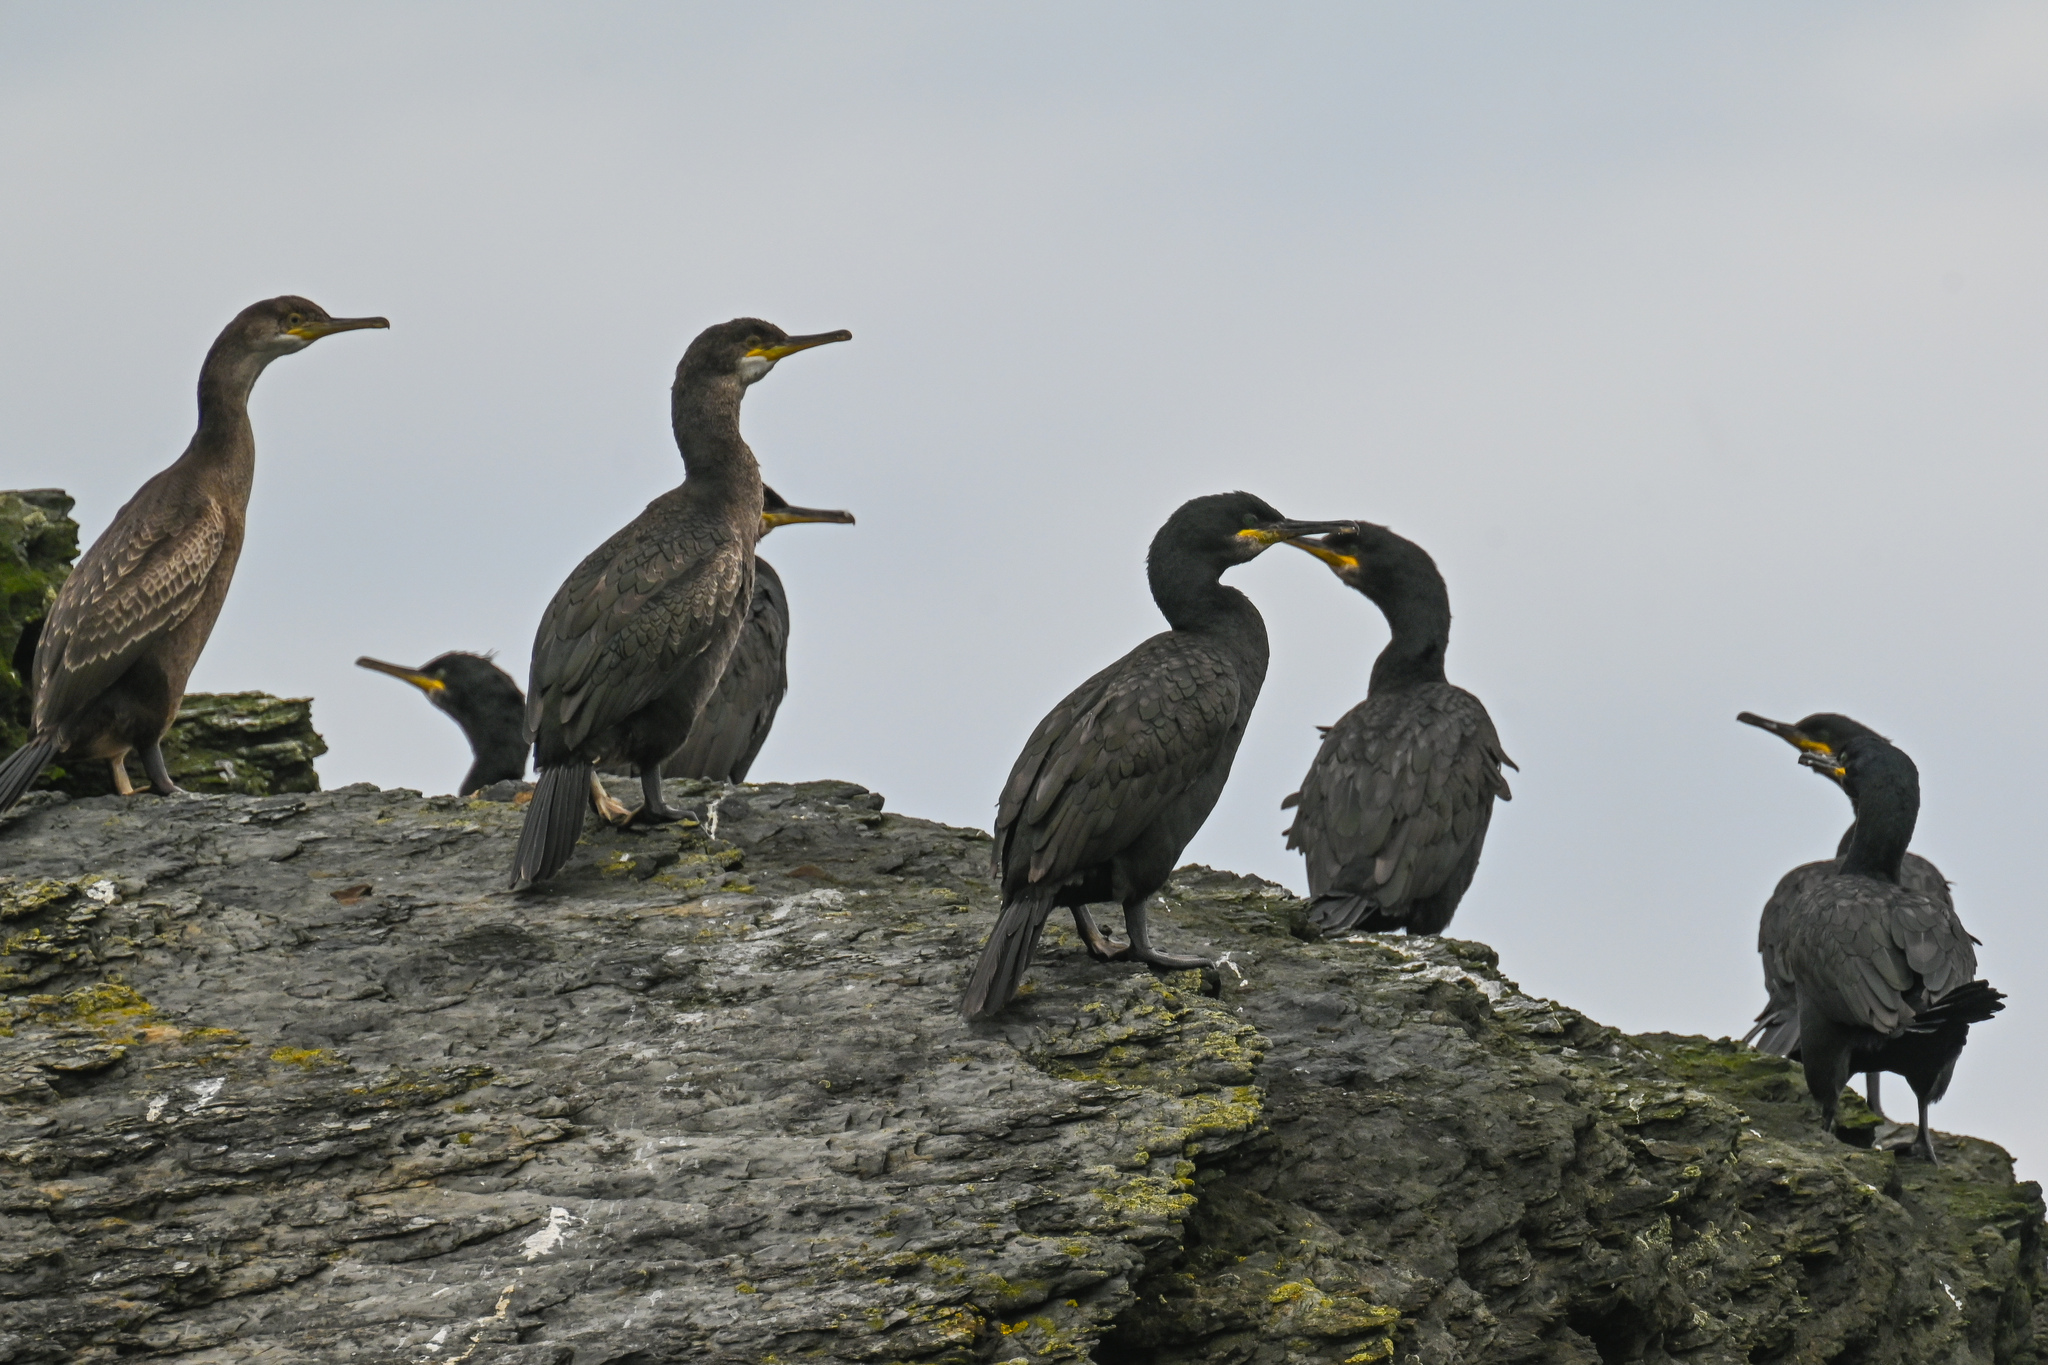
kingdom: Animalia
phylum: Chordata
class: Aves
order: Suliformes
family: Phalacrocoracidae
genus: Phalacrocorax
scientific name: Phalacrocorax aristotelis
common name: European shag
